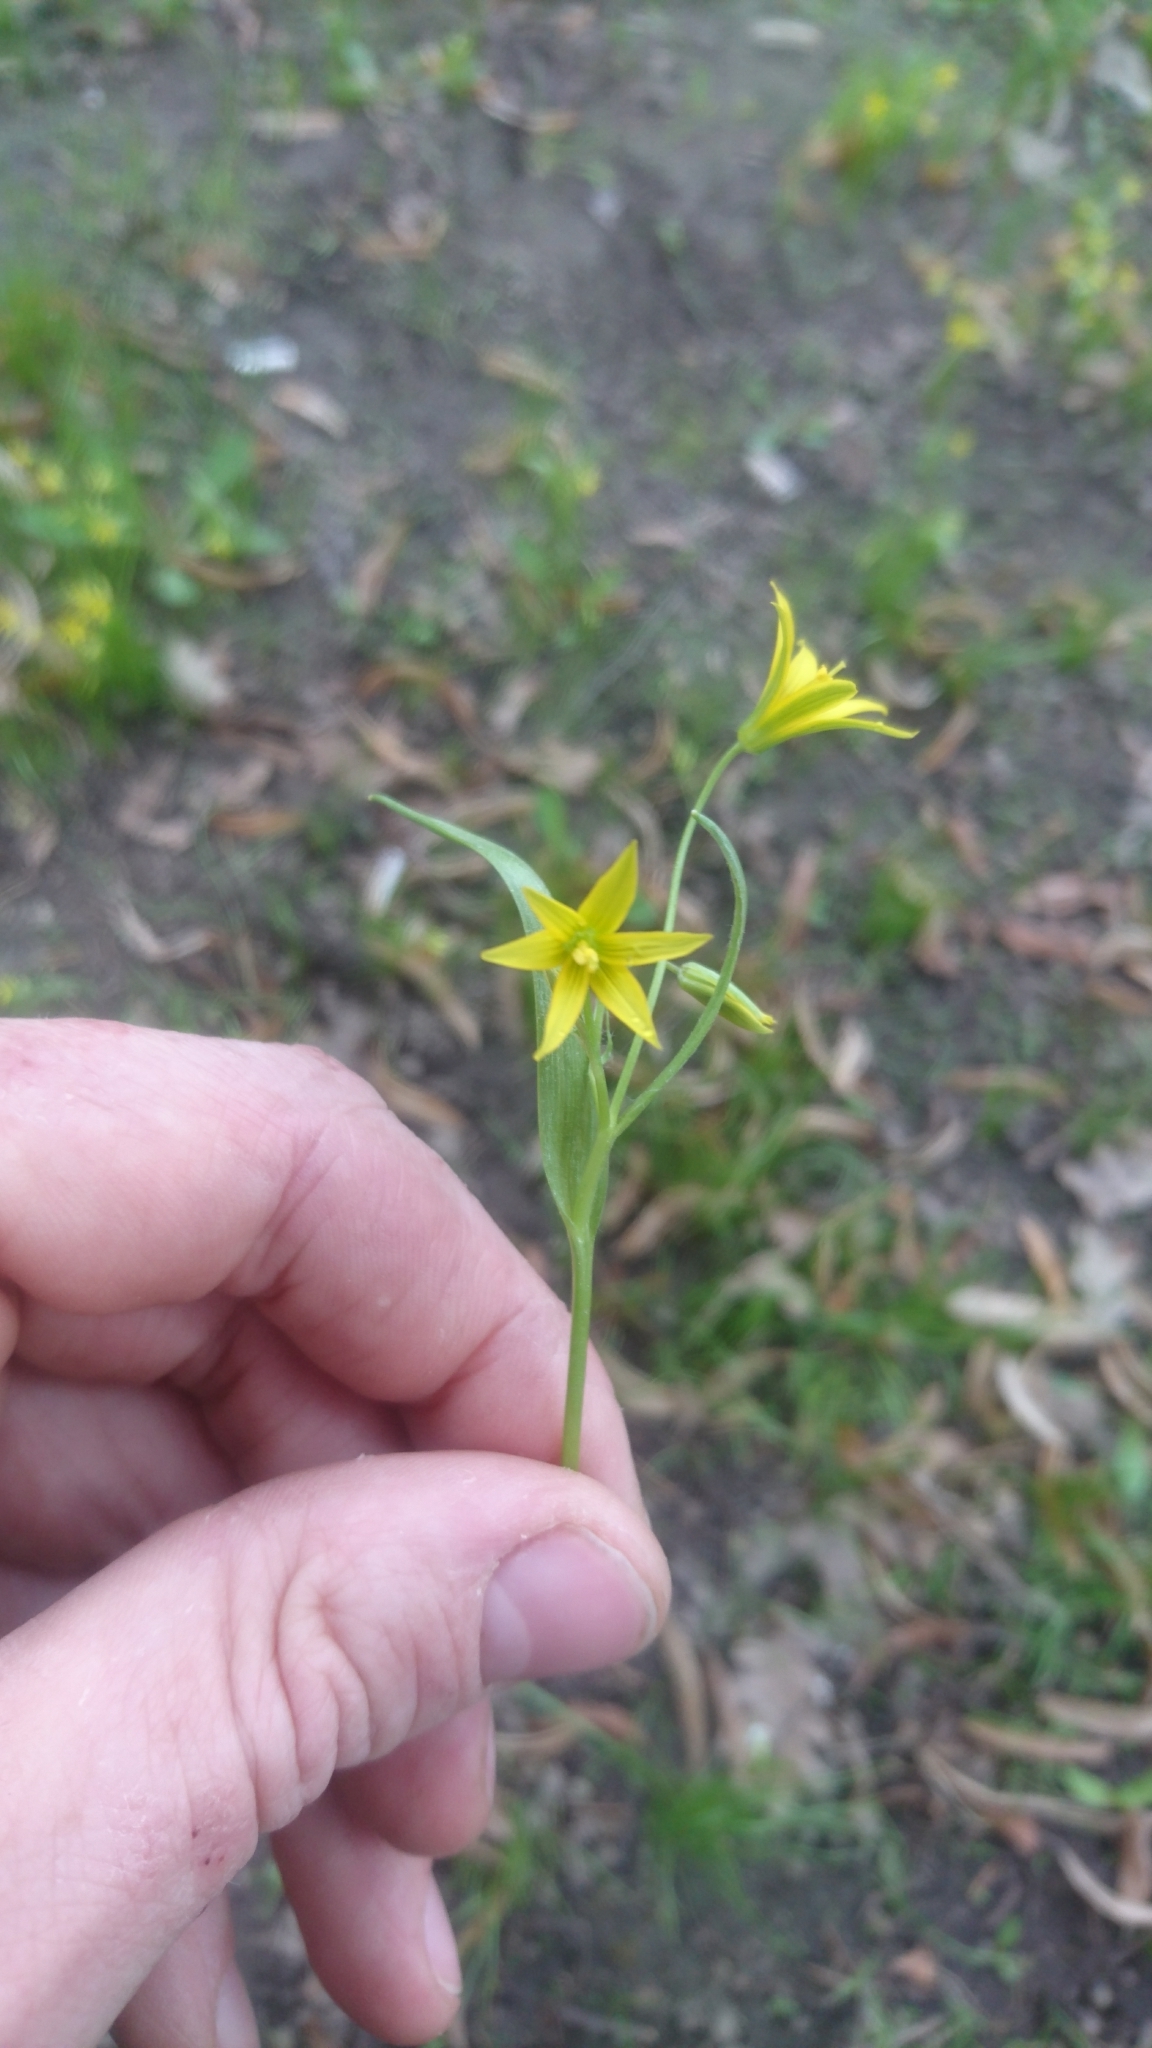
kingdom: Plantae
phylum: Tracheophyta
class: Liliopsida
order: Liliales
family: Liliaceae
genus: Gagea
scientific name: Gagea minima
